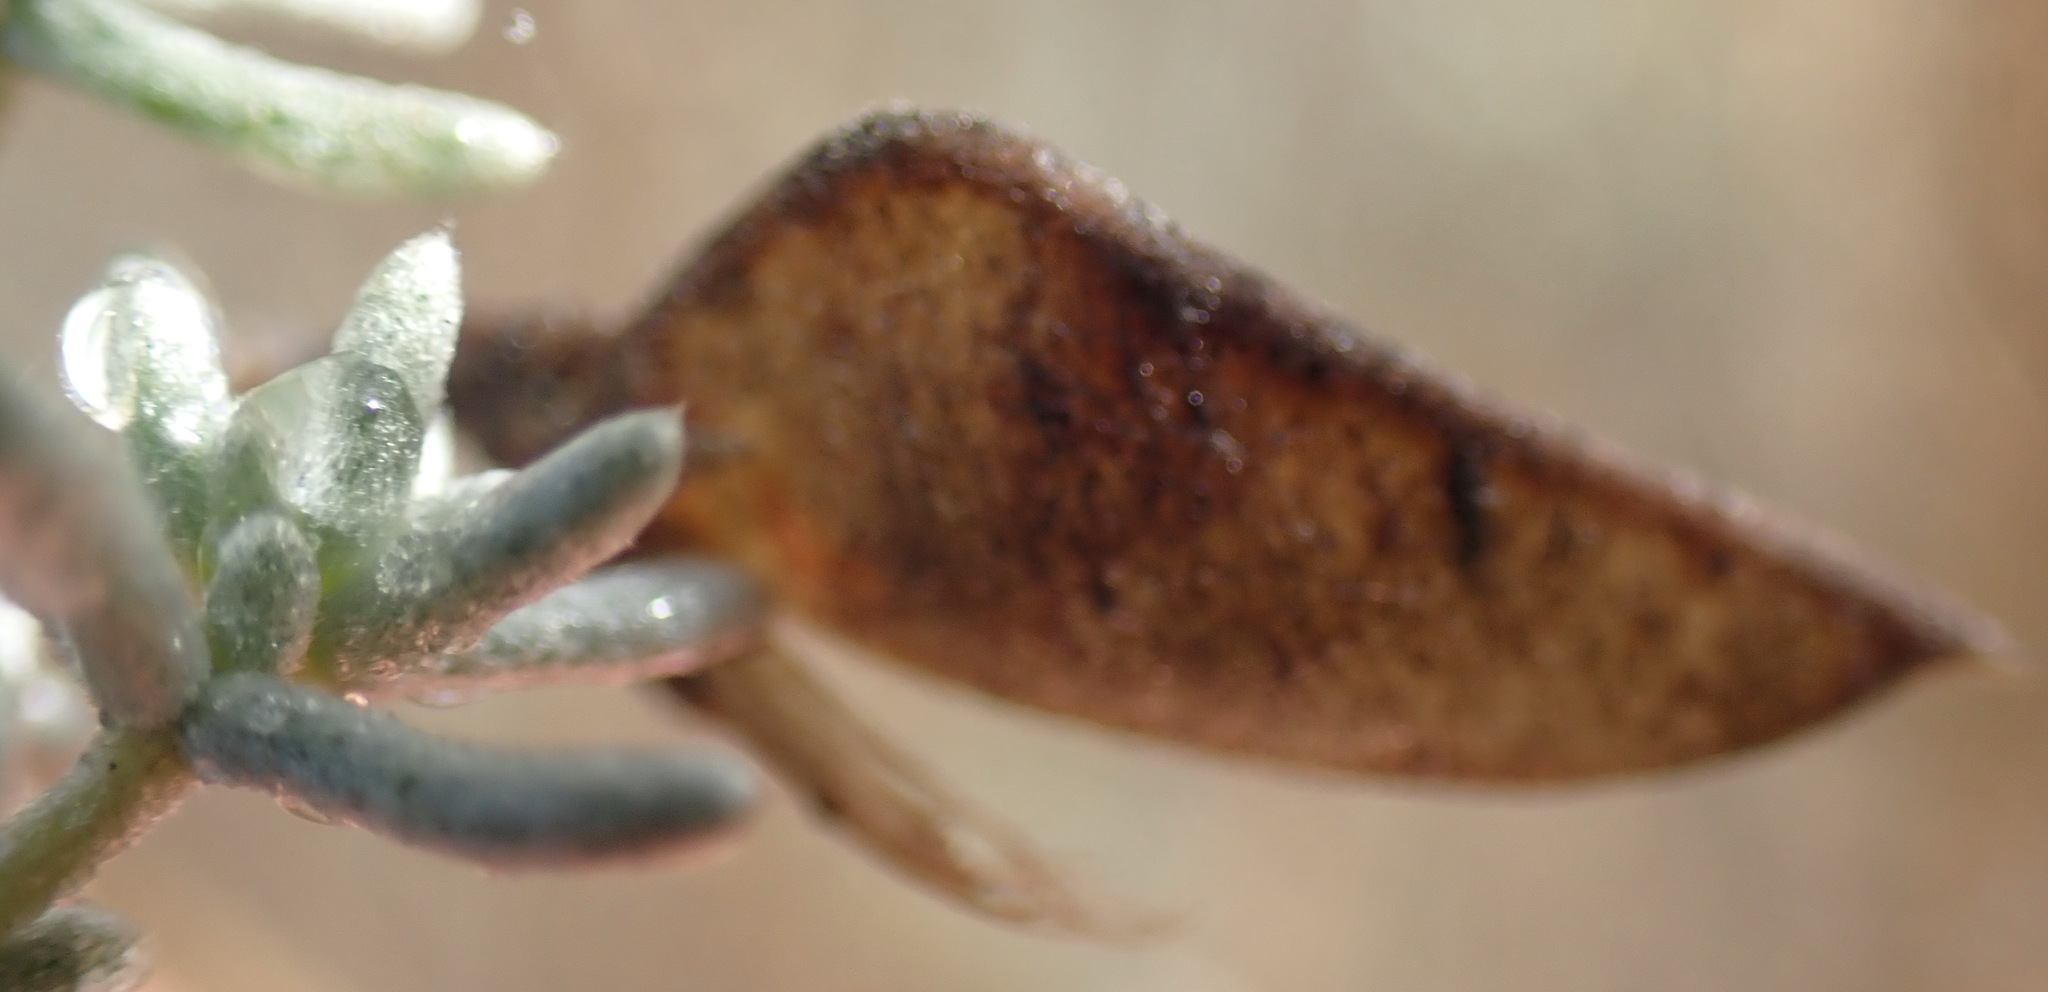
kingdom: Plantae
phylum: Tracheophyta
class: Magnoliopsida
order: Fabales
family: Fabaceae
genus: Aspalathus
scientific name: Aspalathus pedunculata
